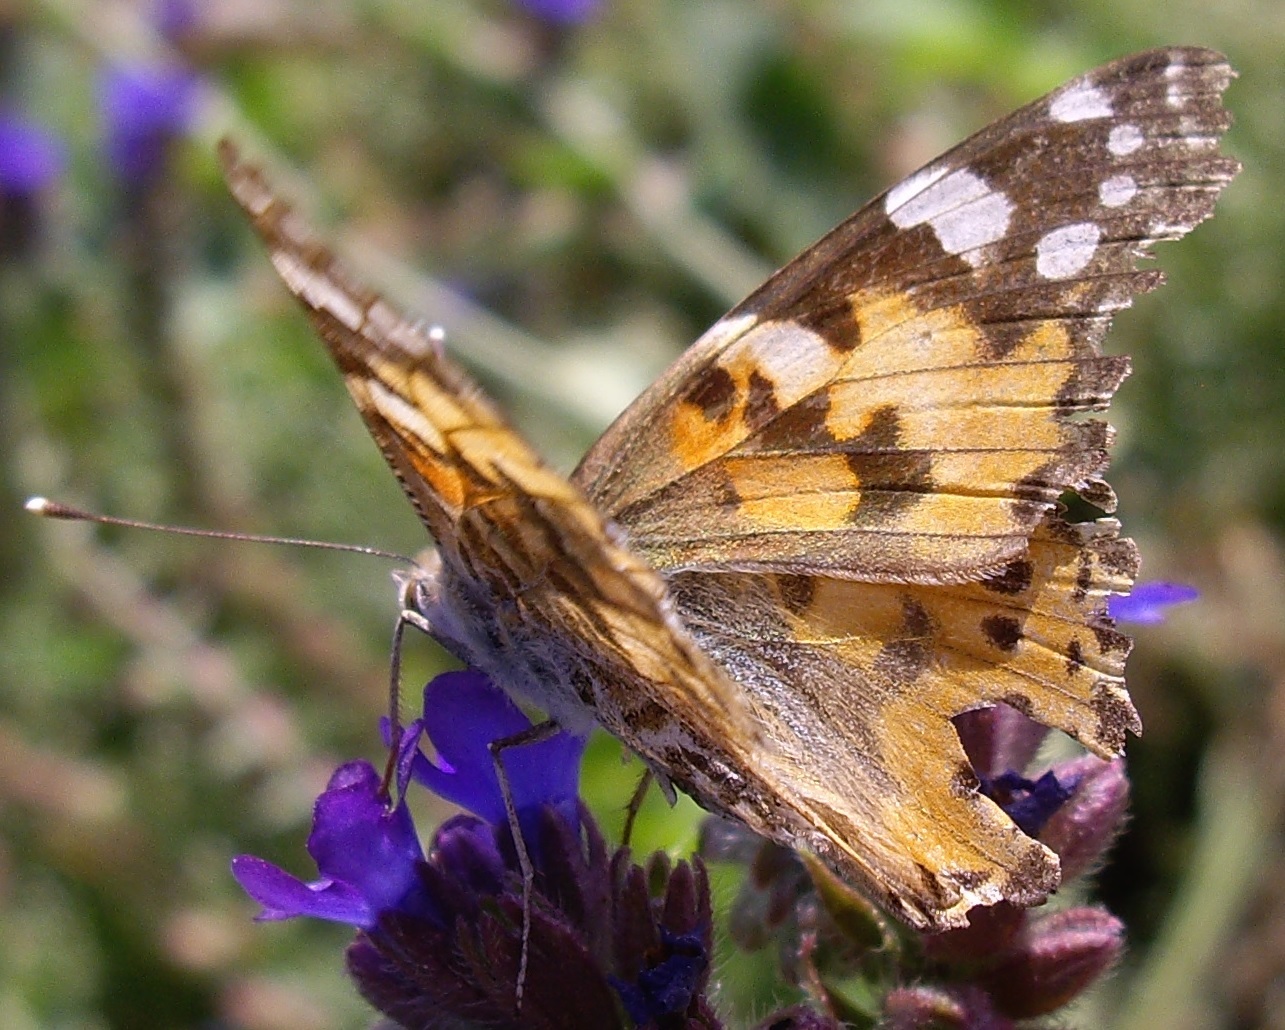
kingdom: Animalia
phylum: Arthropoda
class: Insecta
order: Lepidoptera
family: Nymphalidae
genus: Vanessa
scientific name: Vanessa cardui
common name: Painted lady
